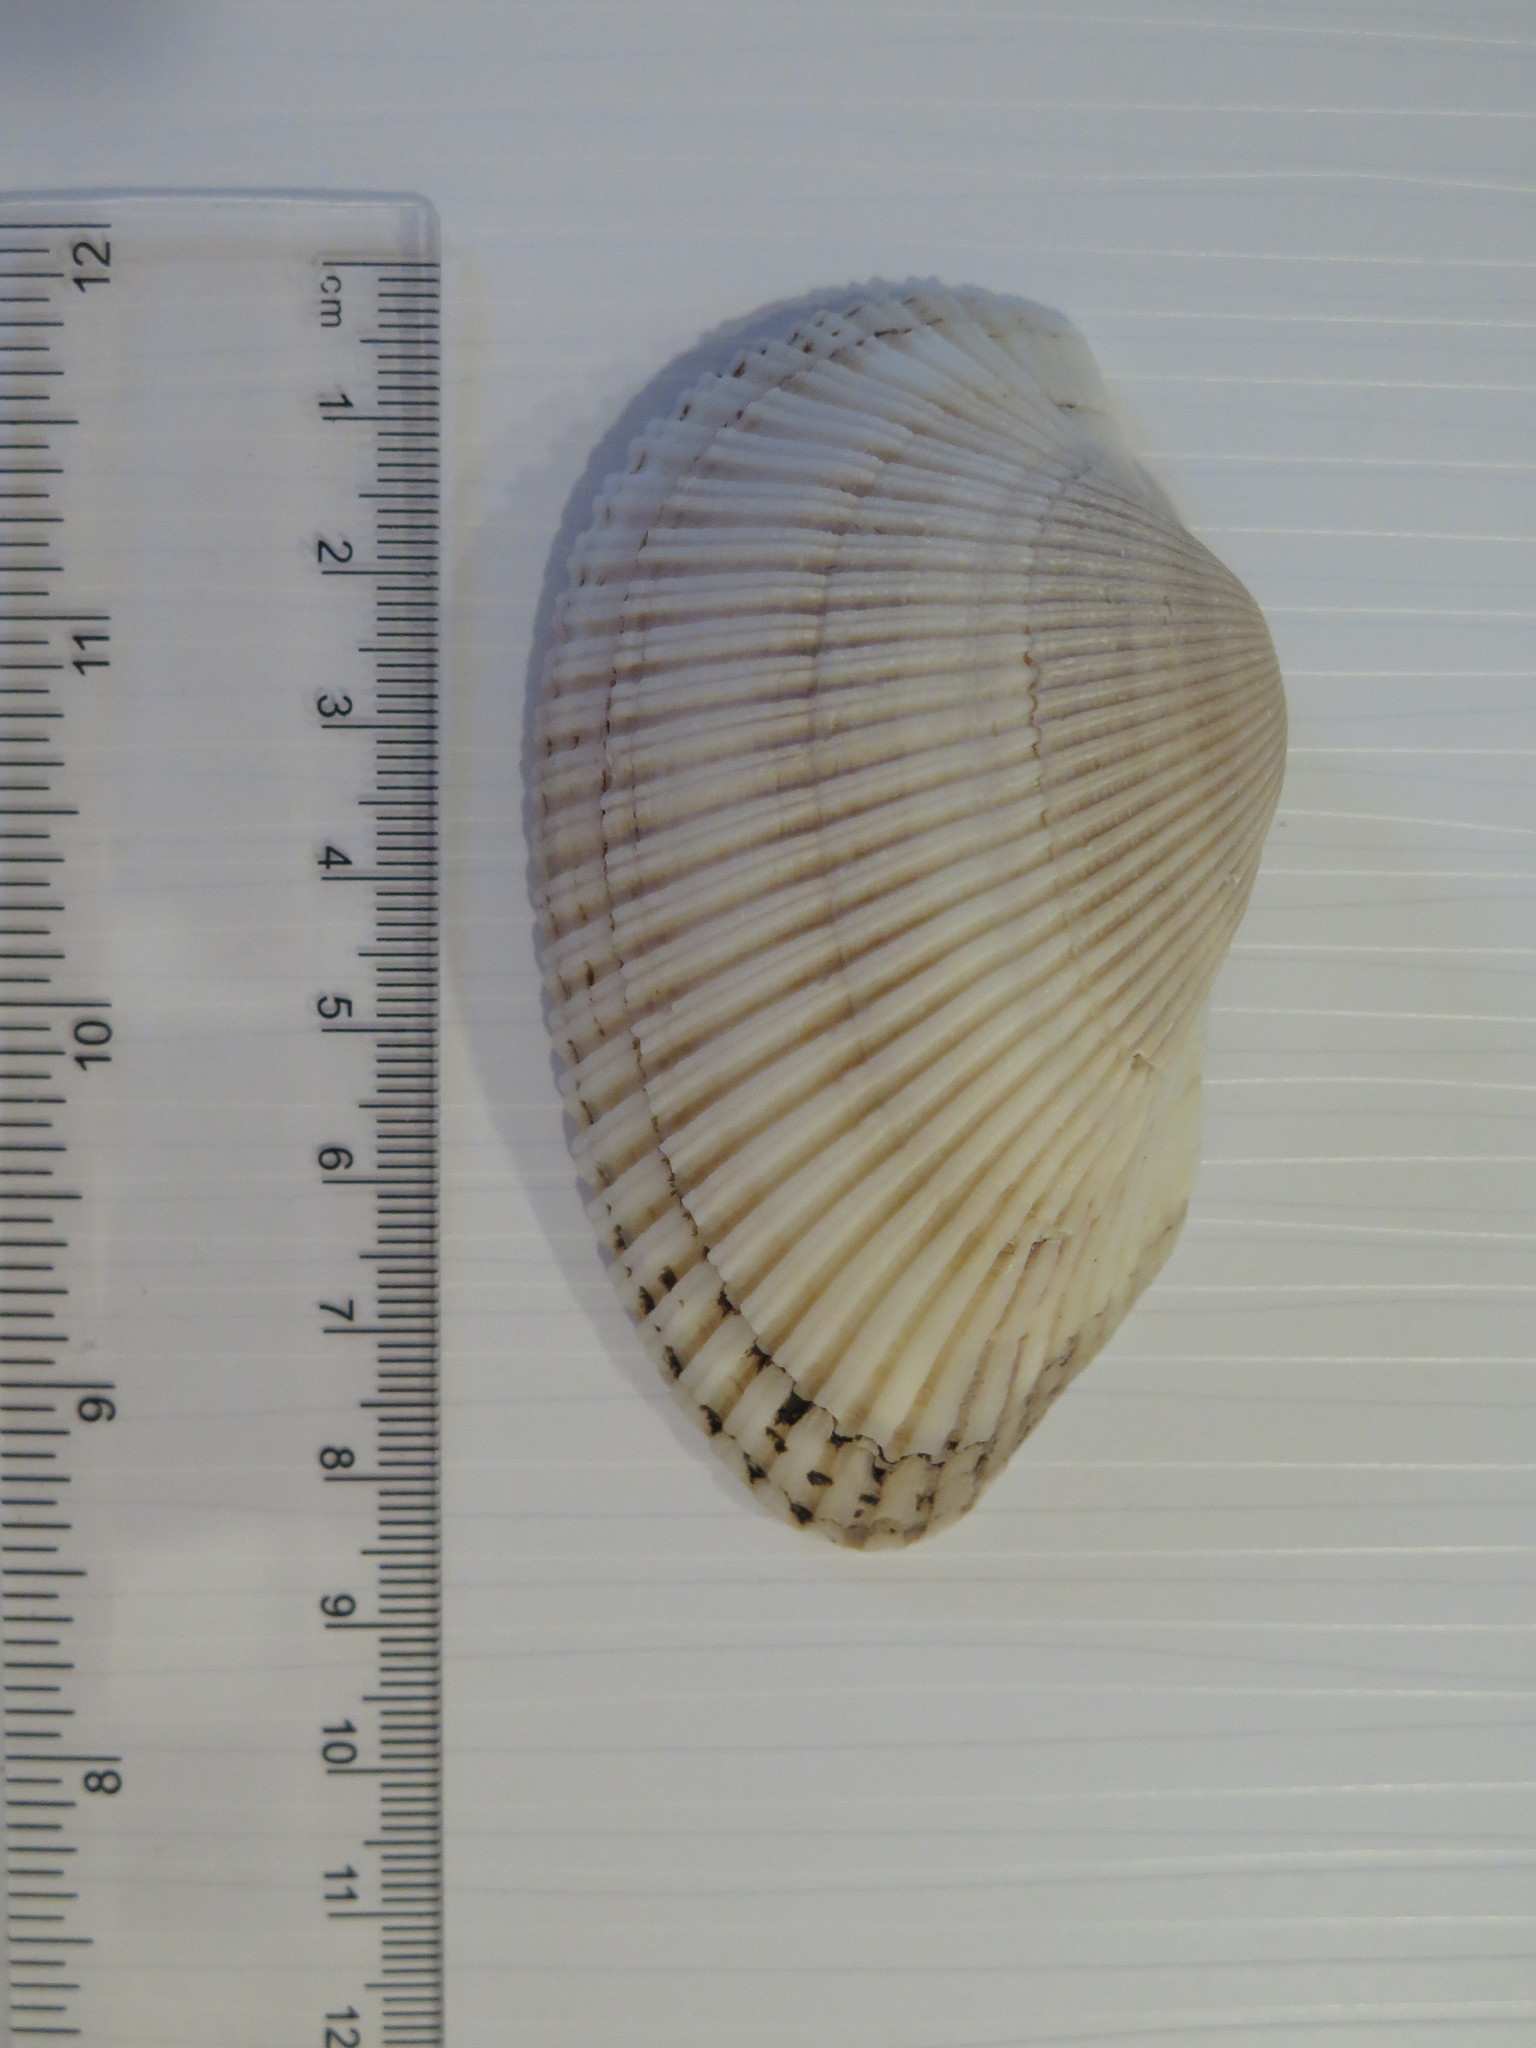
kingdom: Animalia
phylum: Mollusca
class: Bivalvia
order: Arcida
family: Arcidae
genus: Anadara
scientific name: Anadara secticostata
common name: Cut-ribbed ark
